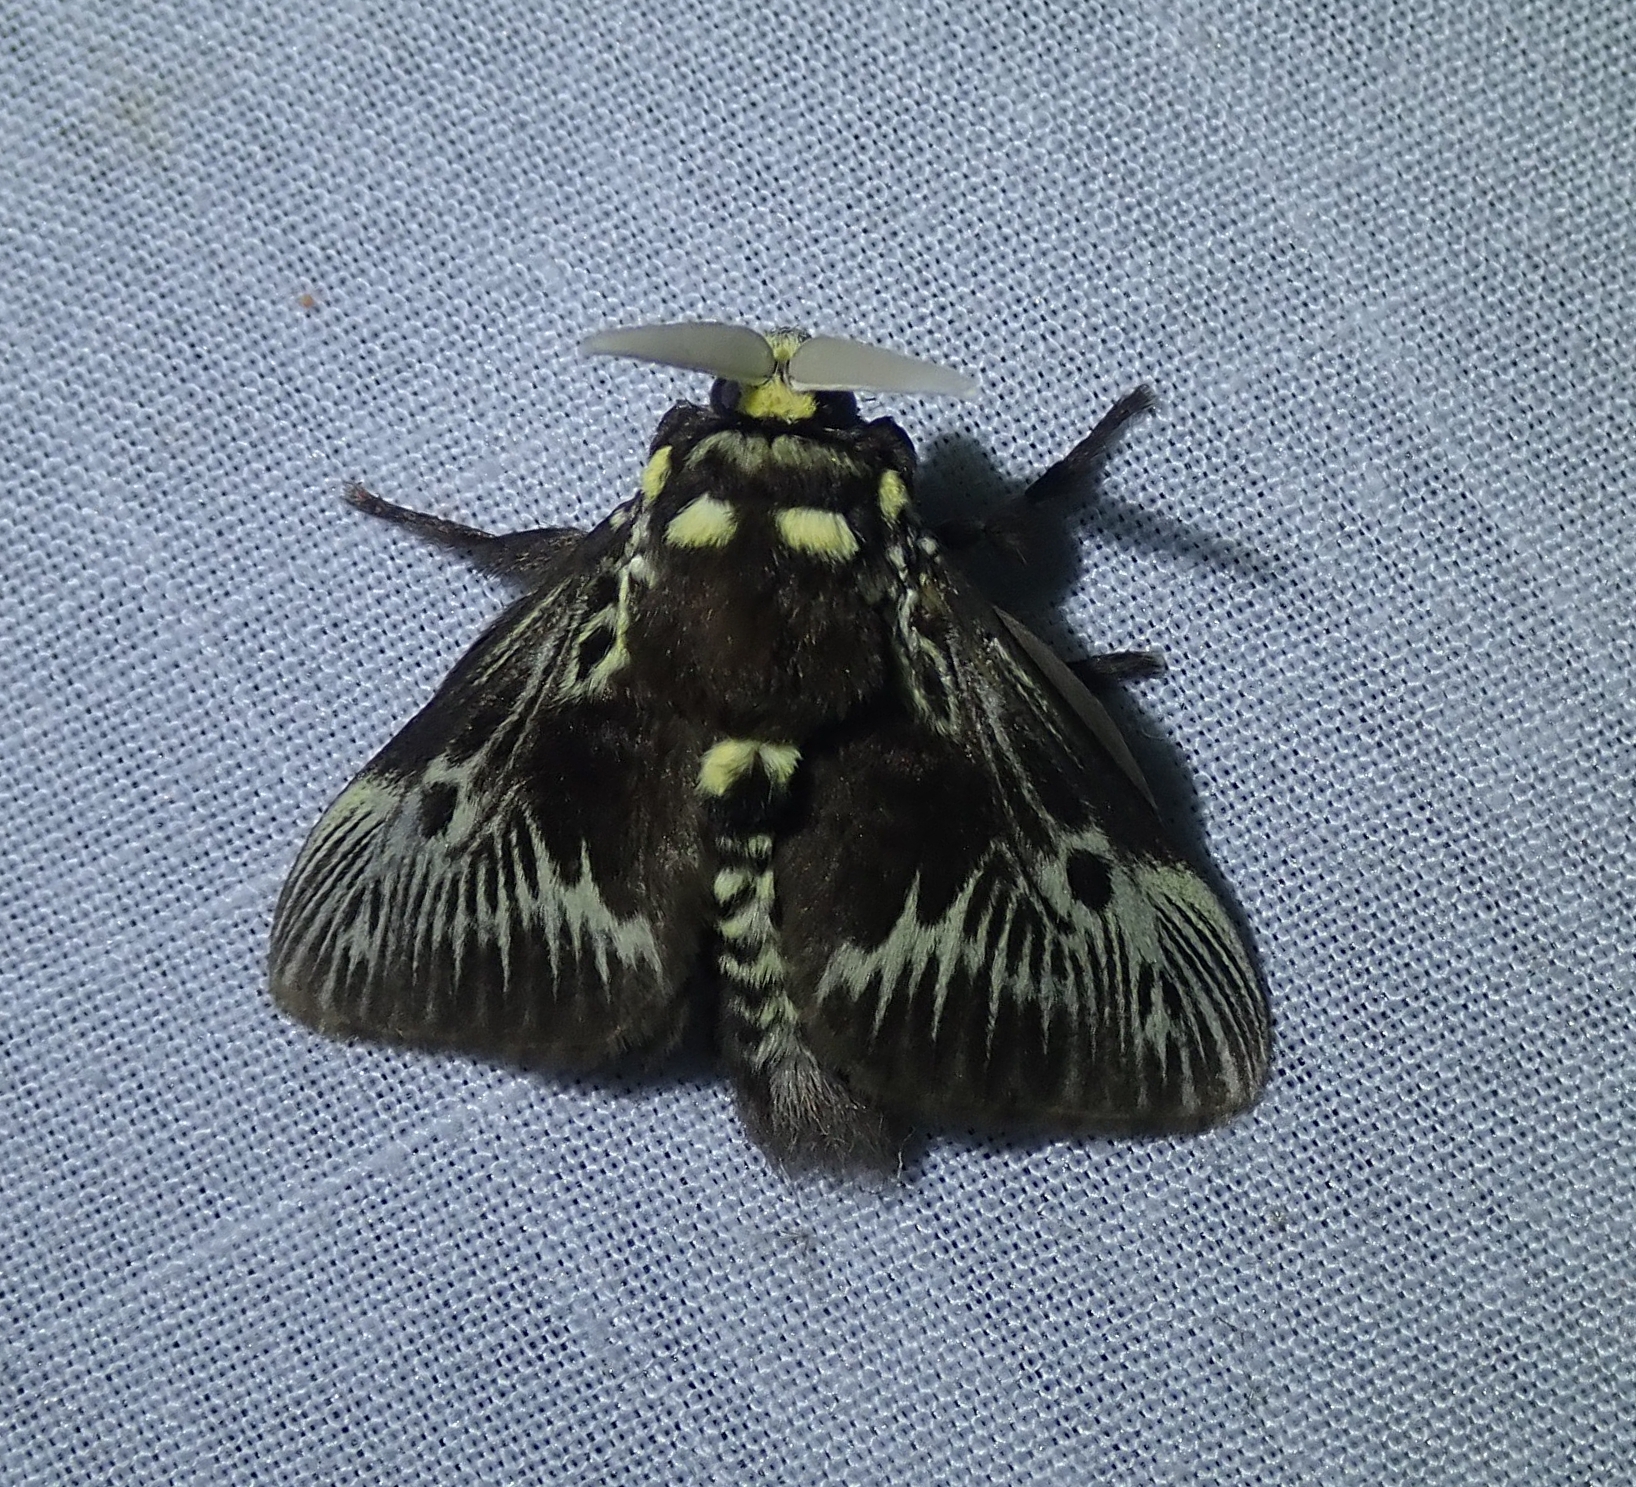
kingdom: Animalia
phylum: Arthropoda
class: Insecta
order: Lepidoptera
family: Megalopygidae
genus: Megalopyge
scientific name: Megalopyge albicollis
